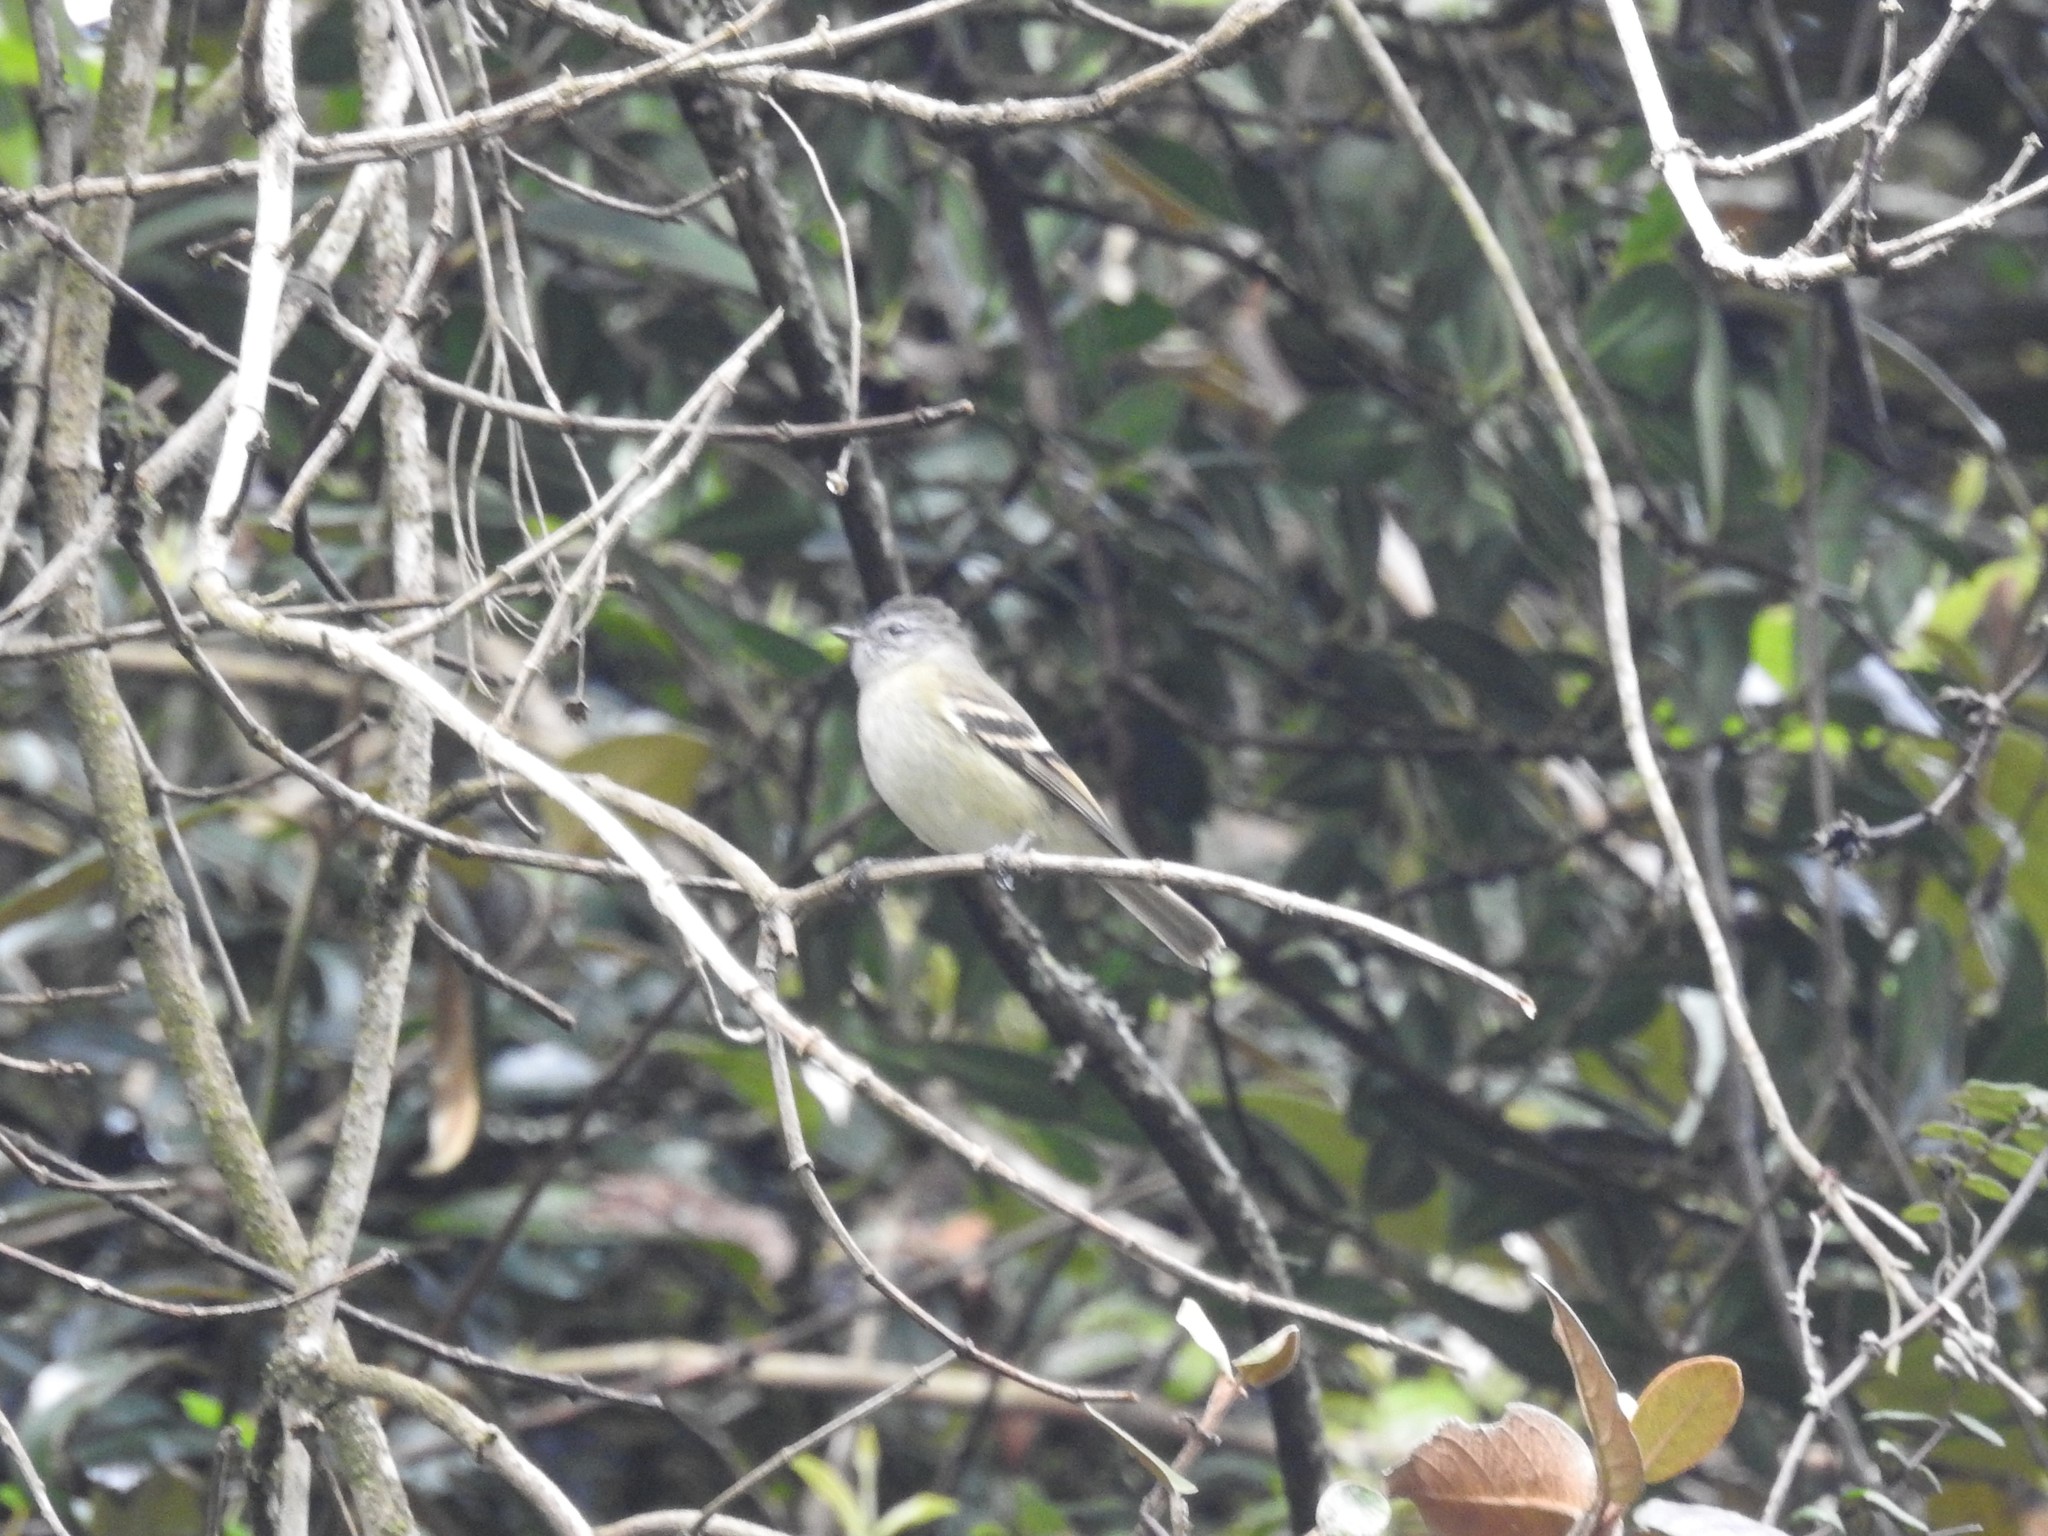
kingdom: Animalia
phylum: Chordata
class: Aves
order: Passeriformes
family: Tyrannidae
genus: Elaenia
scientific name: Elaenia albiceps
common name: White-crested elaenia
